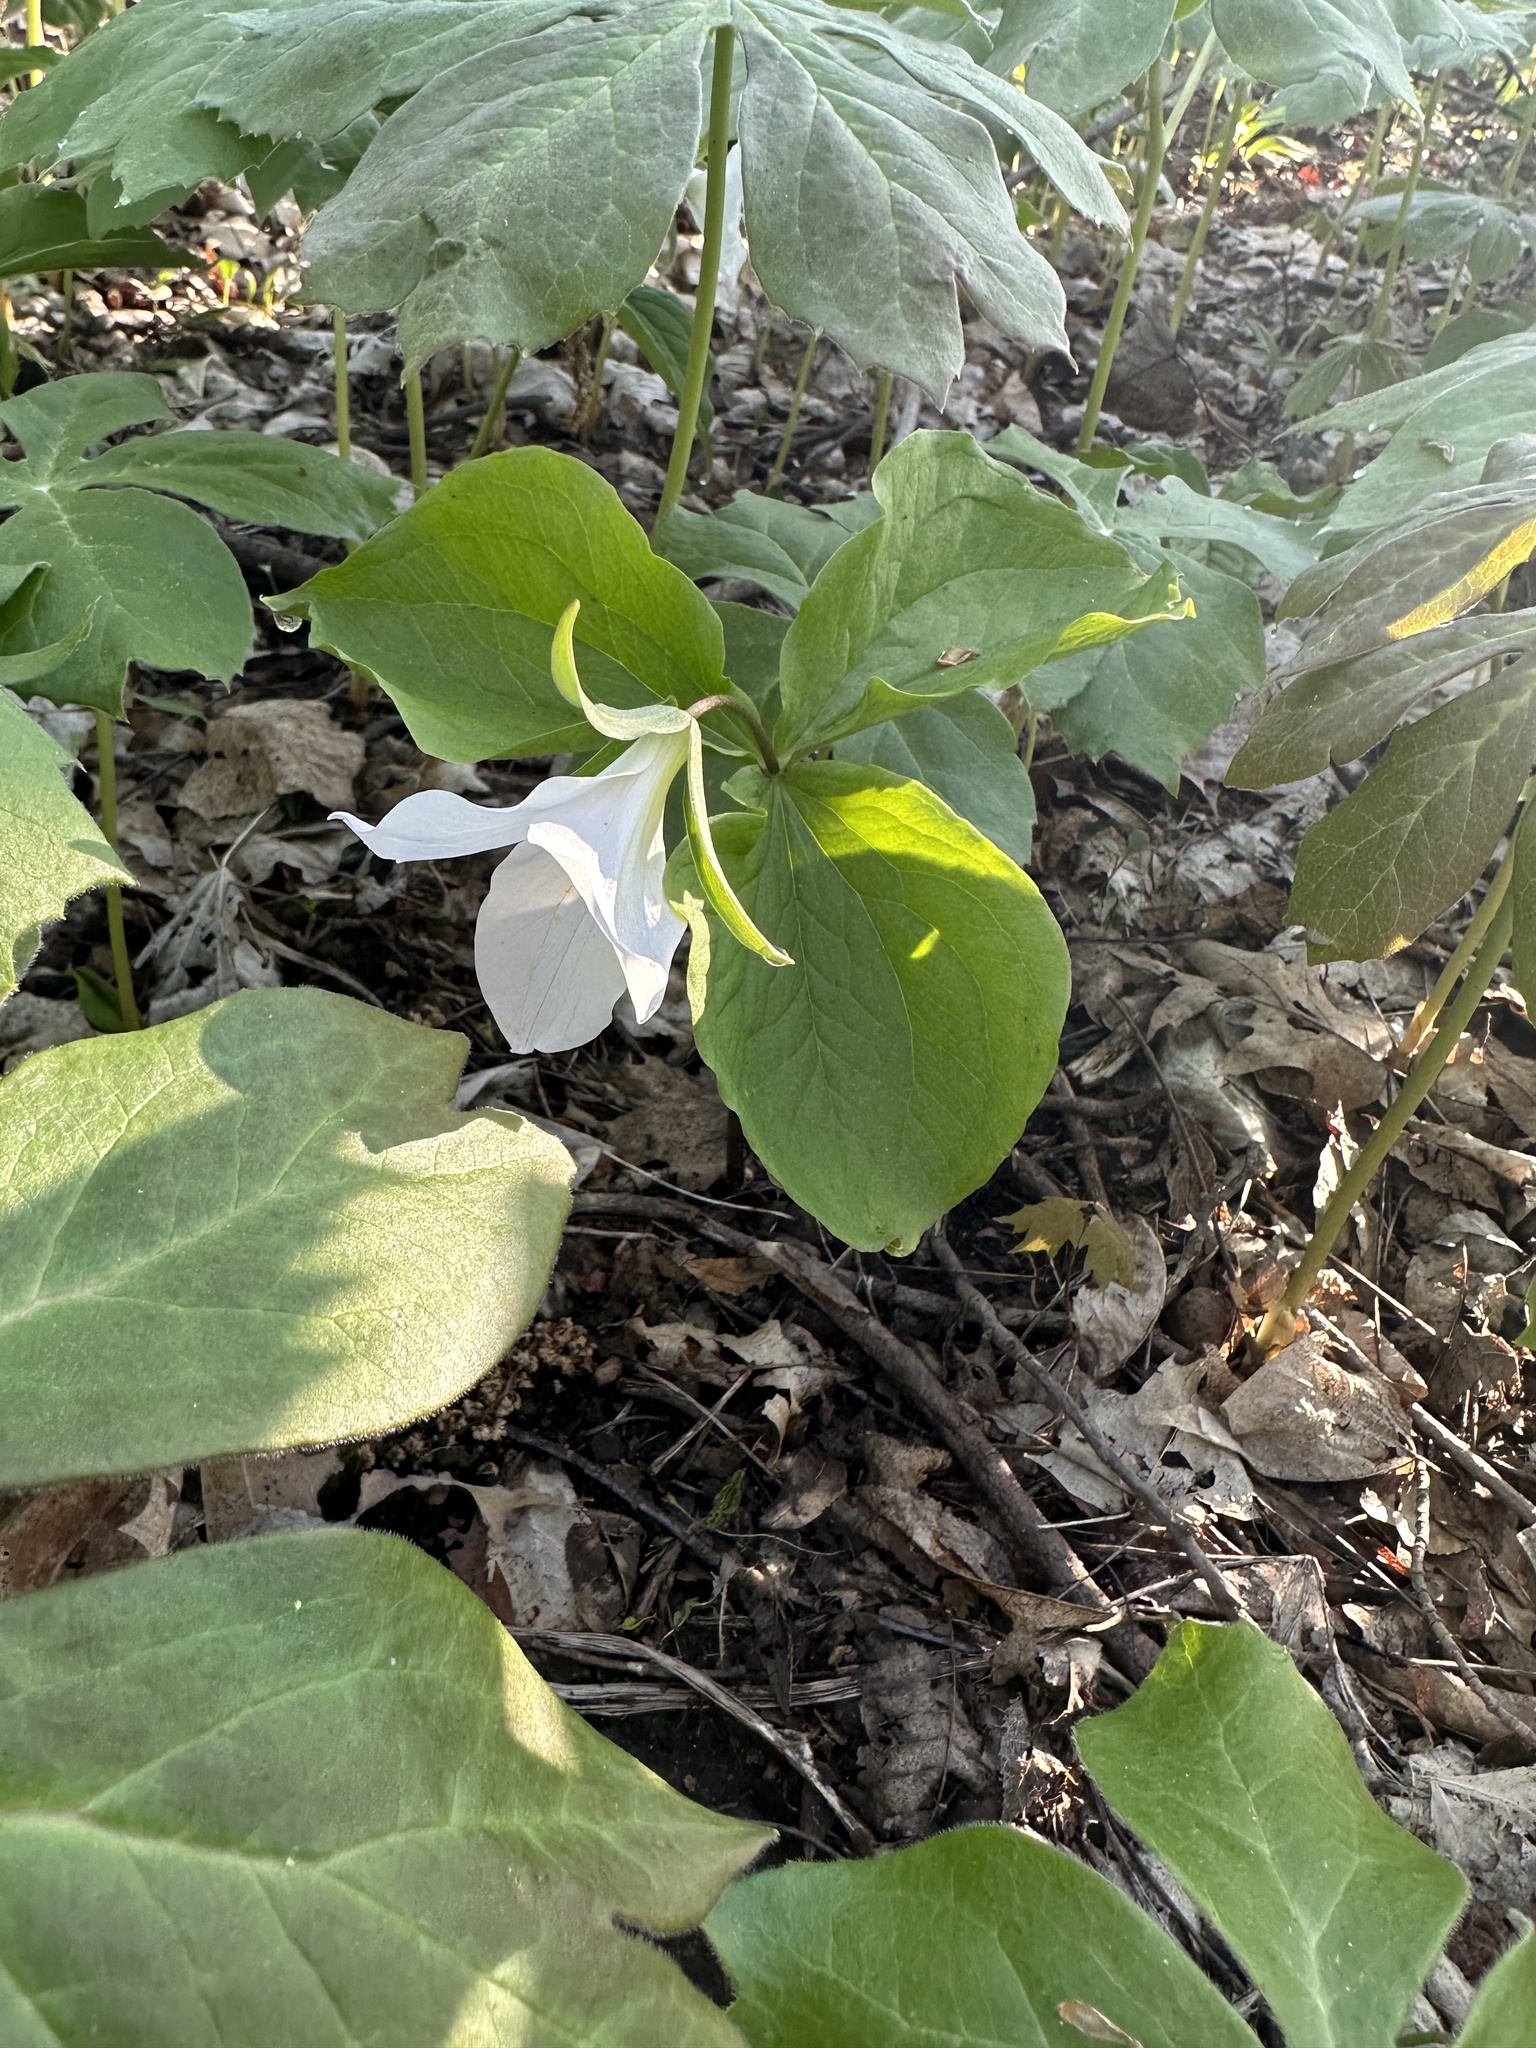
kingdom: Plantae
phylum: Tracheophyta
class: Liliopsida
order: Liliales
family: Melanthiaceae
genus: Trillium
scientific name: Trillium grandiflorum
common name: Great white trillium
